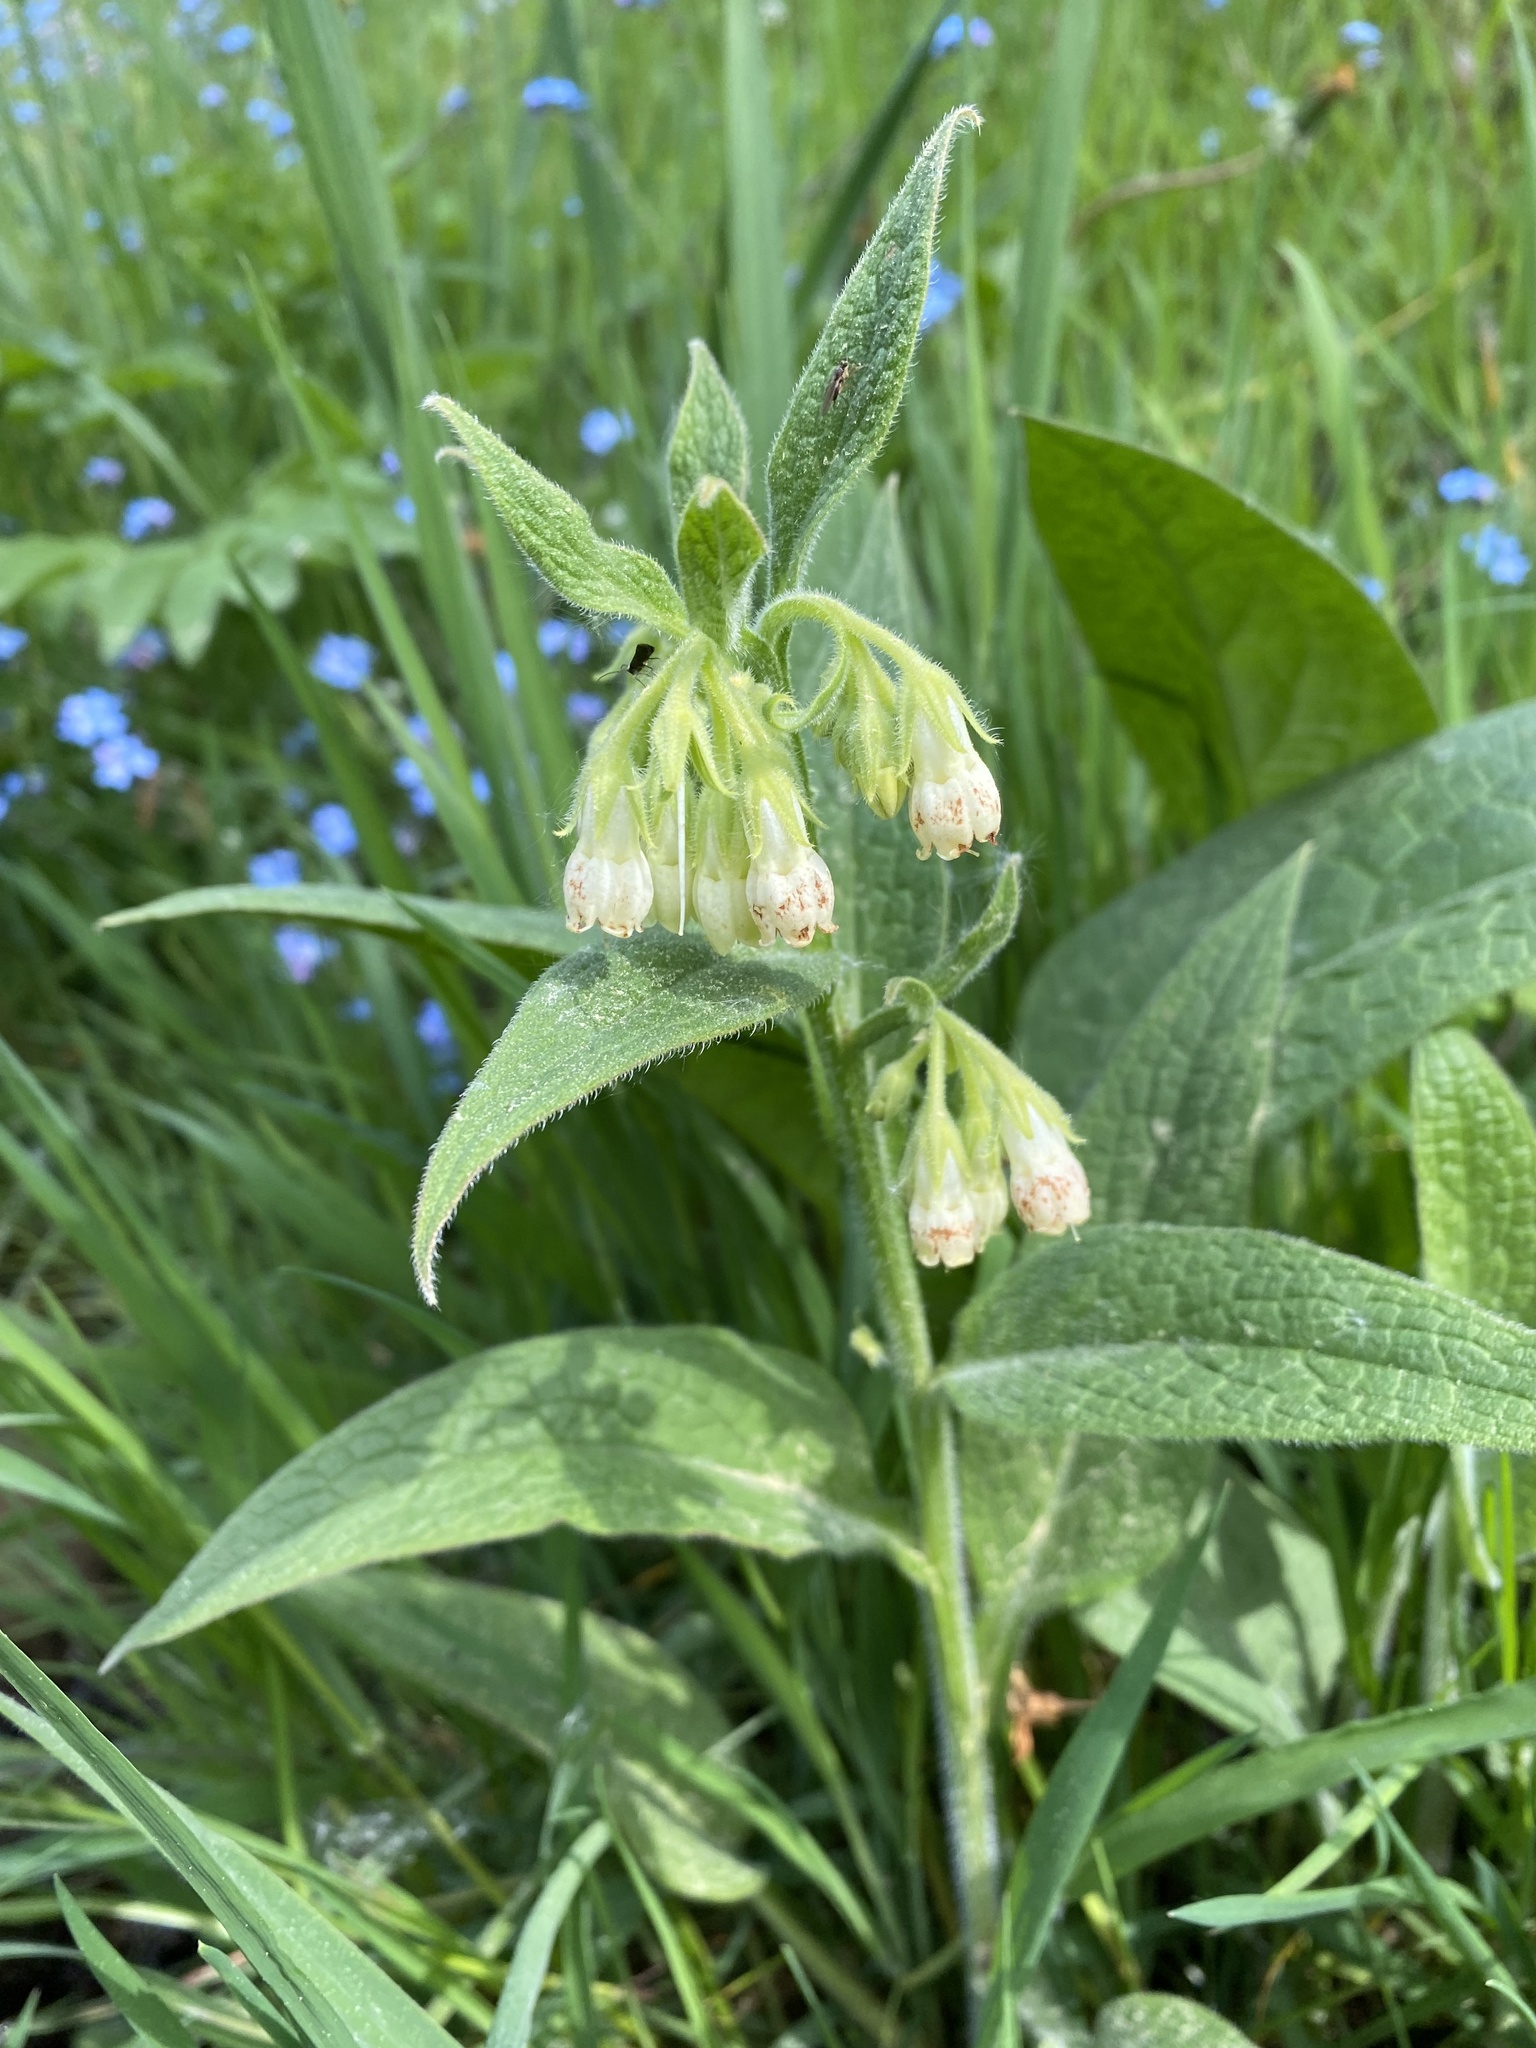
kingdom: Plantae
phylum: Tracheophyta
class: Magnoliopsida
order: Boraginales
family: Boraginaceae
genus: Symphytum
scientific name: Symphytum officinale
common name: Common comfrey
